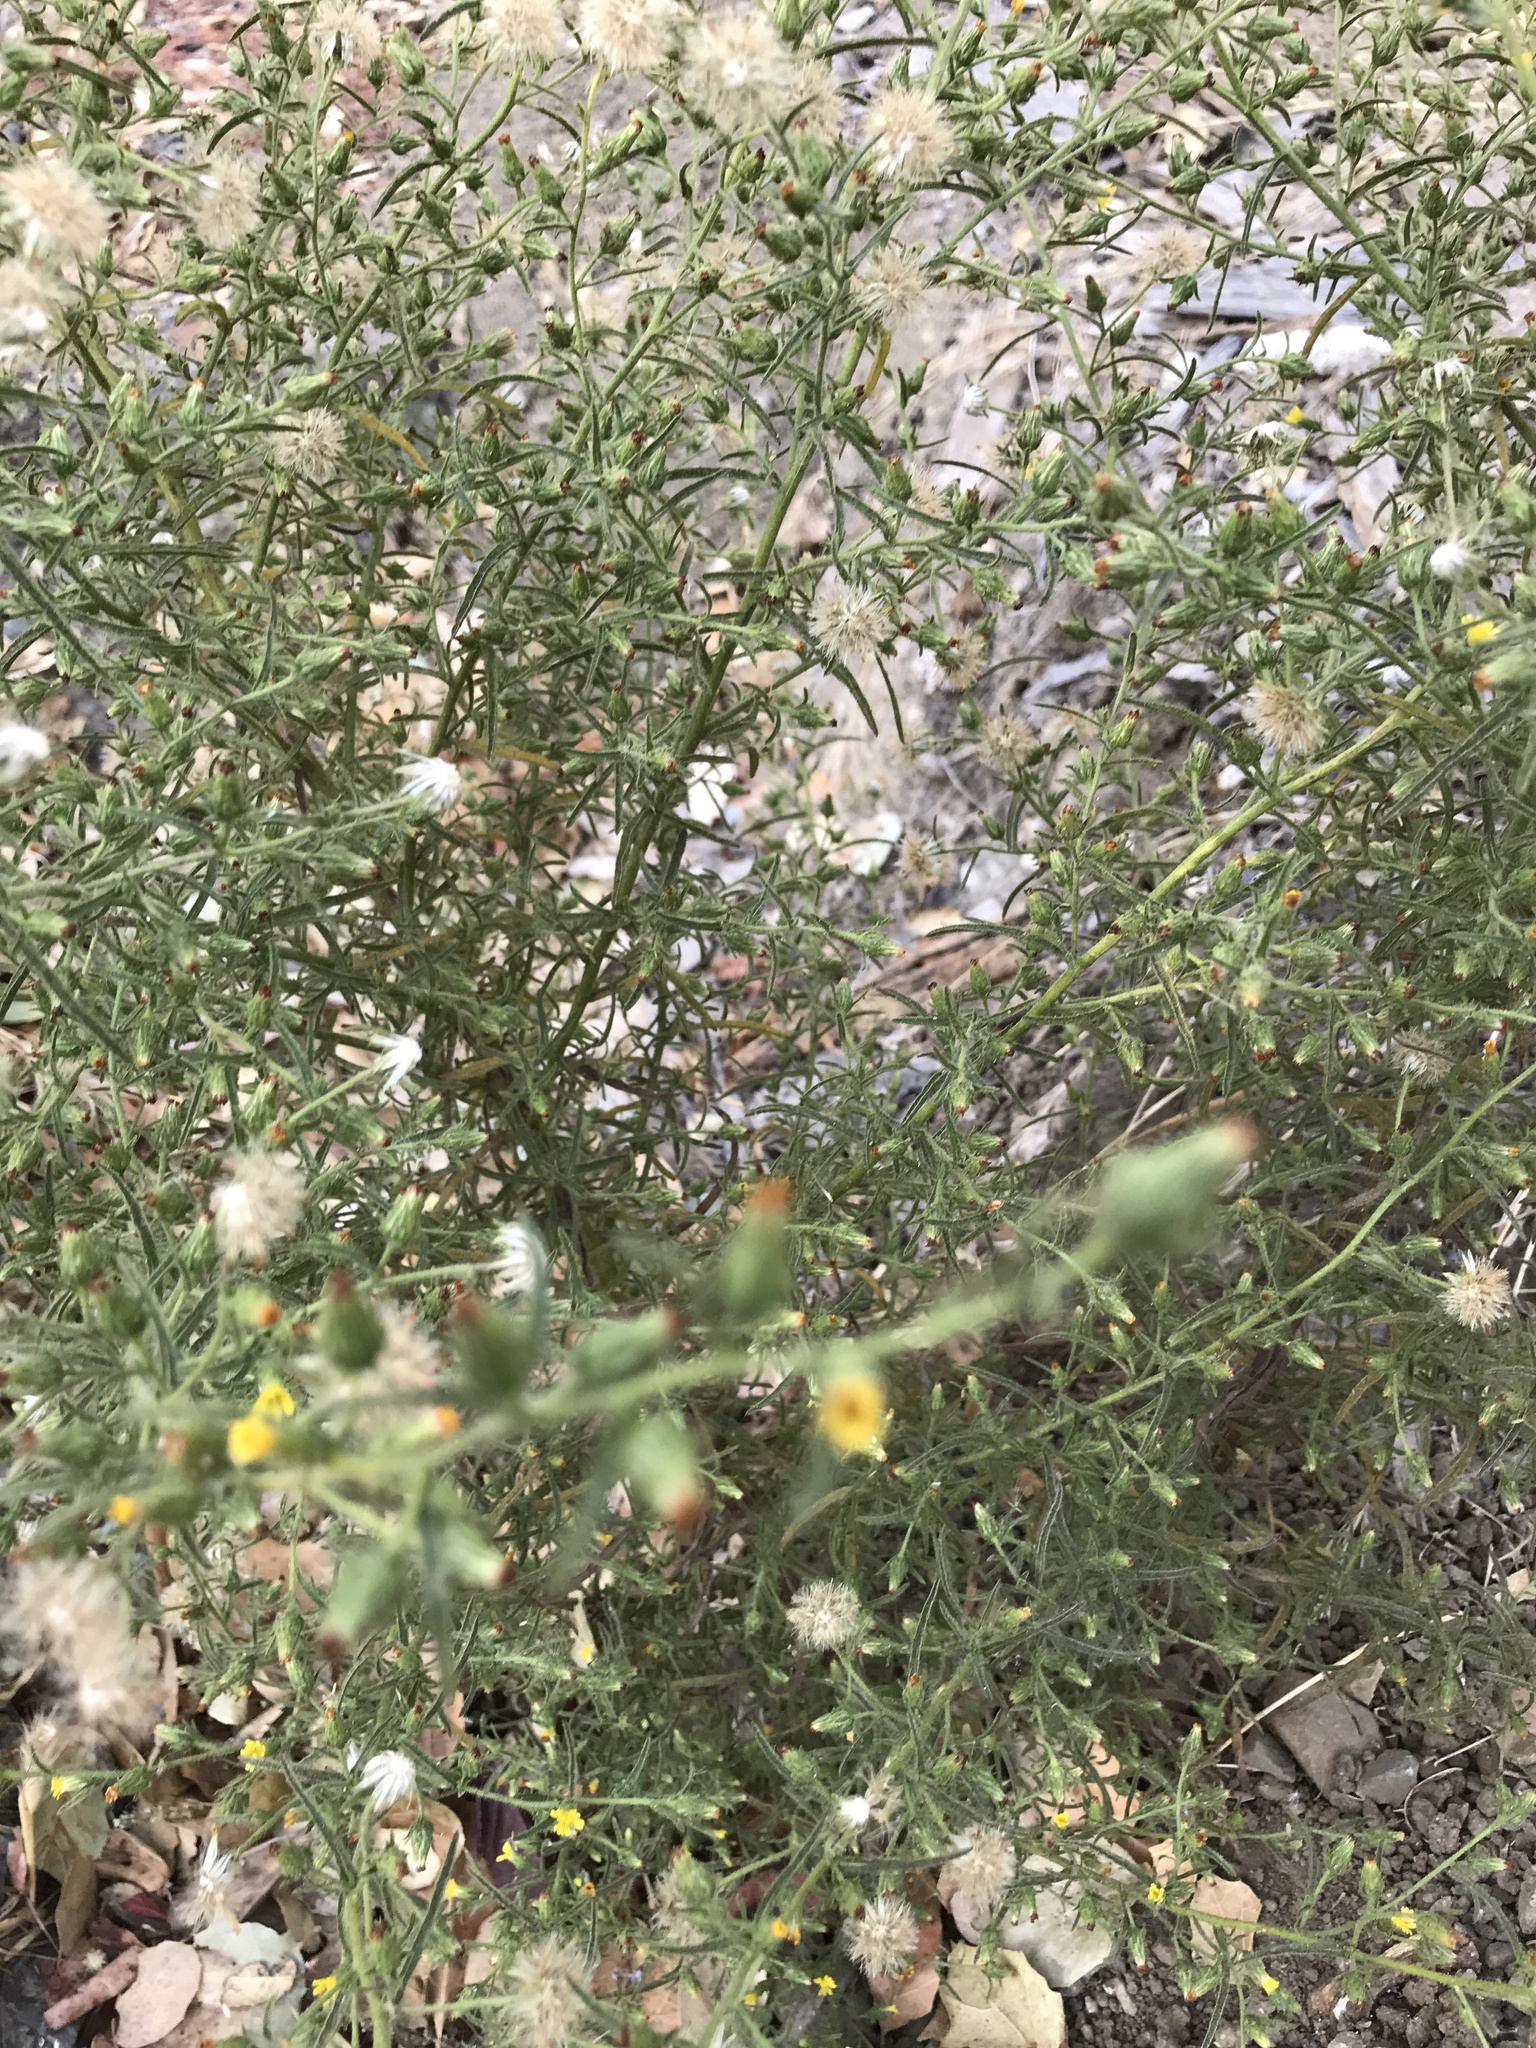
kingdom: Plantae
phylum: Tracheophyta
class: Magnoliopsida
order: Asterales
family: Asteraceae
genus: Dittrichia
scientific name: Dittrichia graveolens
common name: Stinking fleabane
